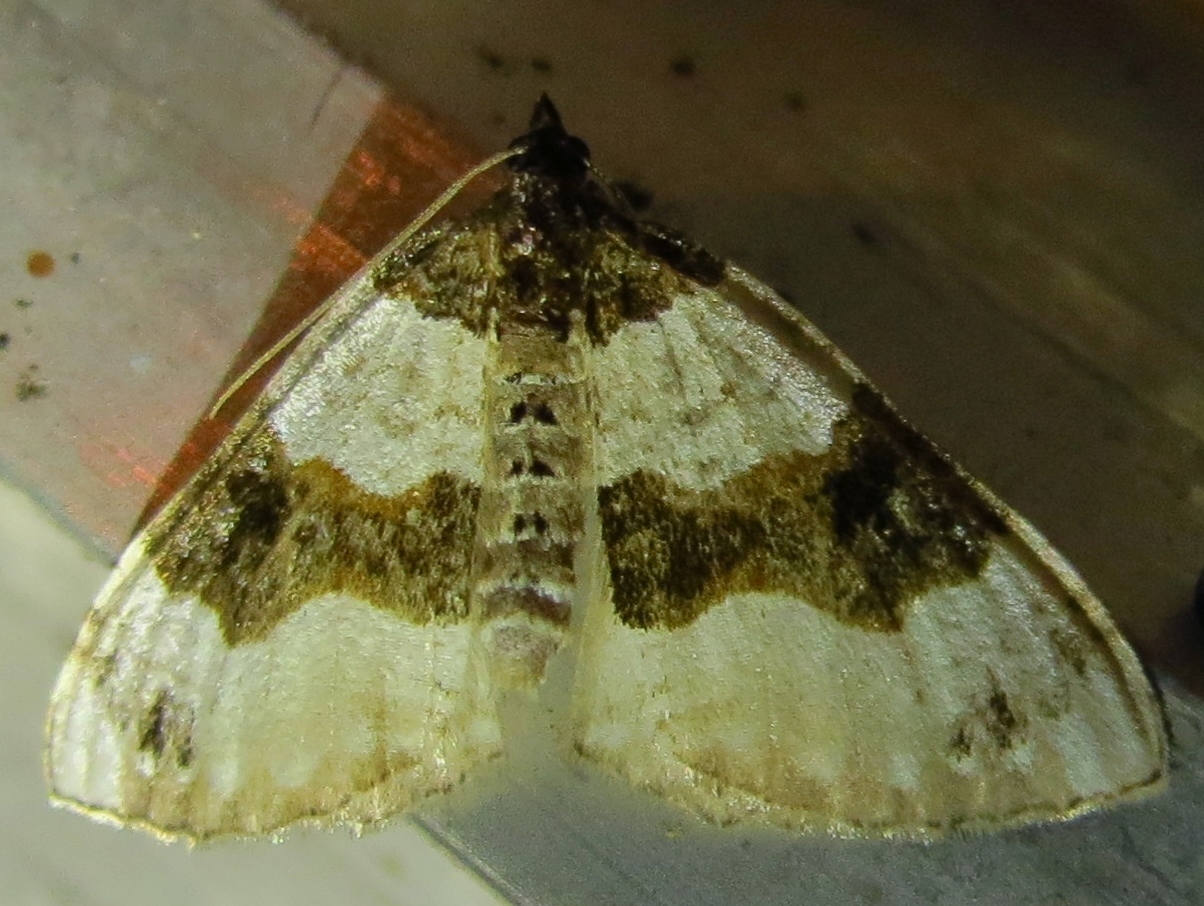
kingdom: Animalia
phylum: Arthropoda
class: Insecta
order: Lepidoptera
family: Geometridae
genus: Cosmorhoe
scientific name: Cosmorhoe ocellata
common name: Purple bar
